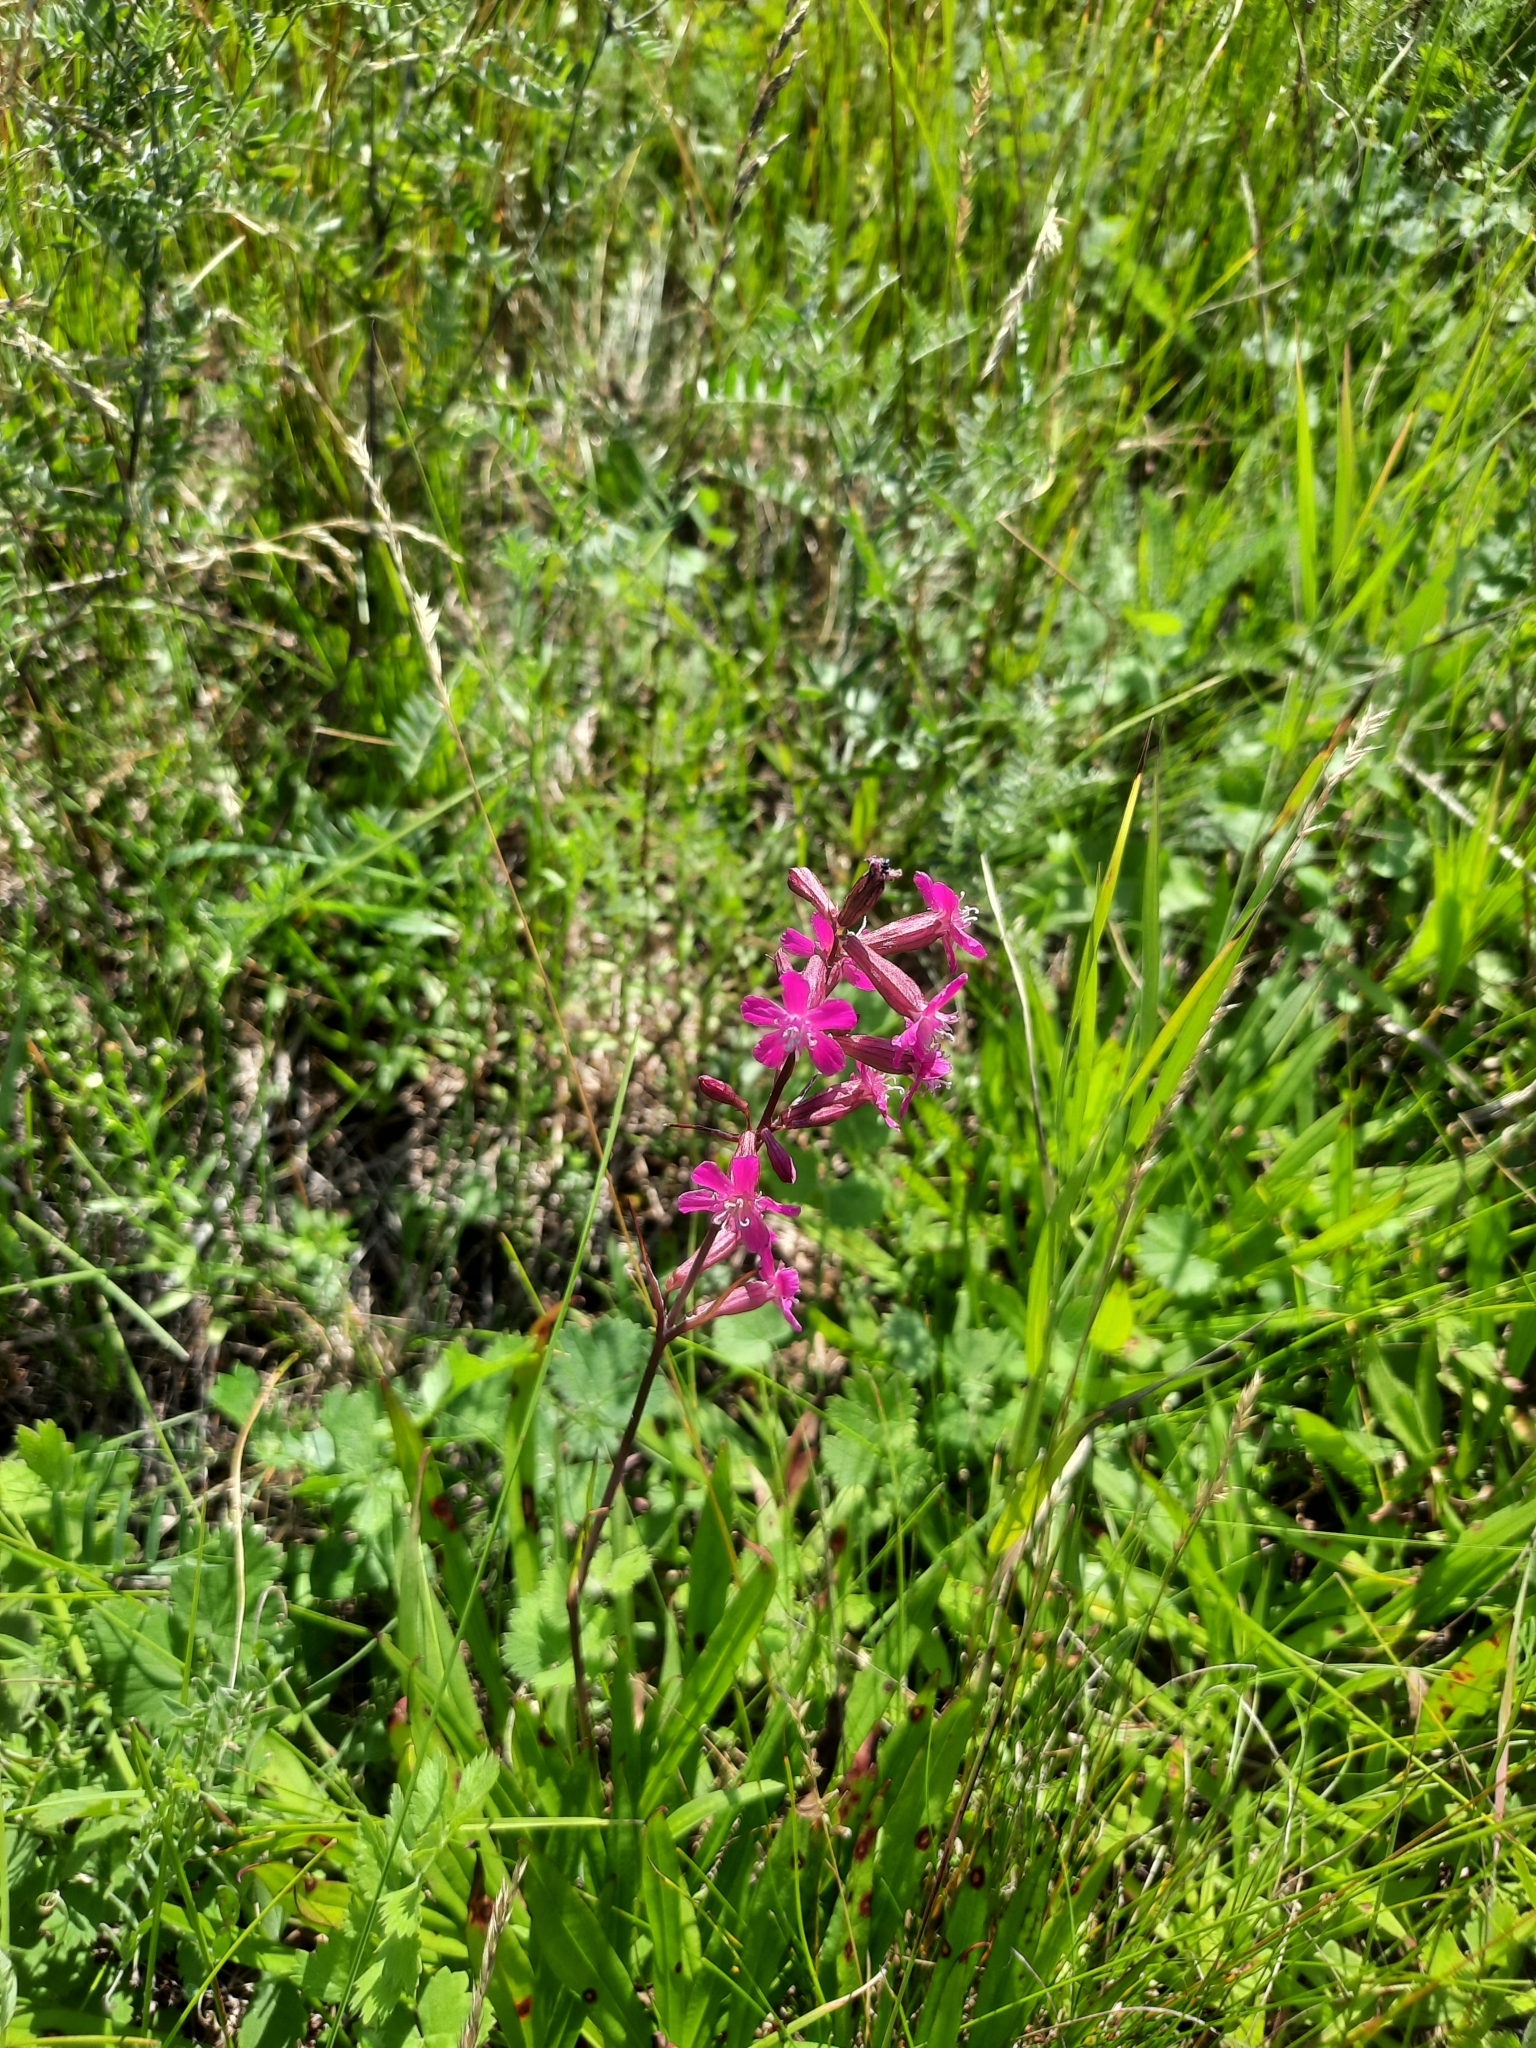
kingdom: Plantae
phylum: Tracheophyta
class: Magnoliopsida
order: Caryophyllales
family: Caryophyllaceae
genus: Viscaria
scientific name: Viscaria vulgaris
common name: Clammy campion
